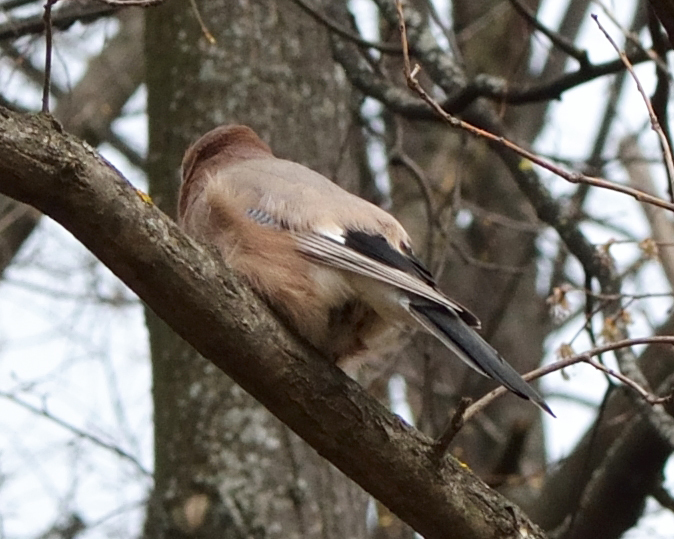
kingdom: Animalia
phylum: Chordata
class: Aves
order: Passeriformes
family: Corvidae
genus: Garrulus
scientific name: Garrulus glandarius
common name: Eurasian jay
